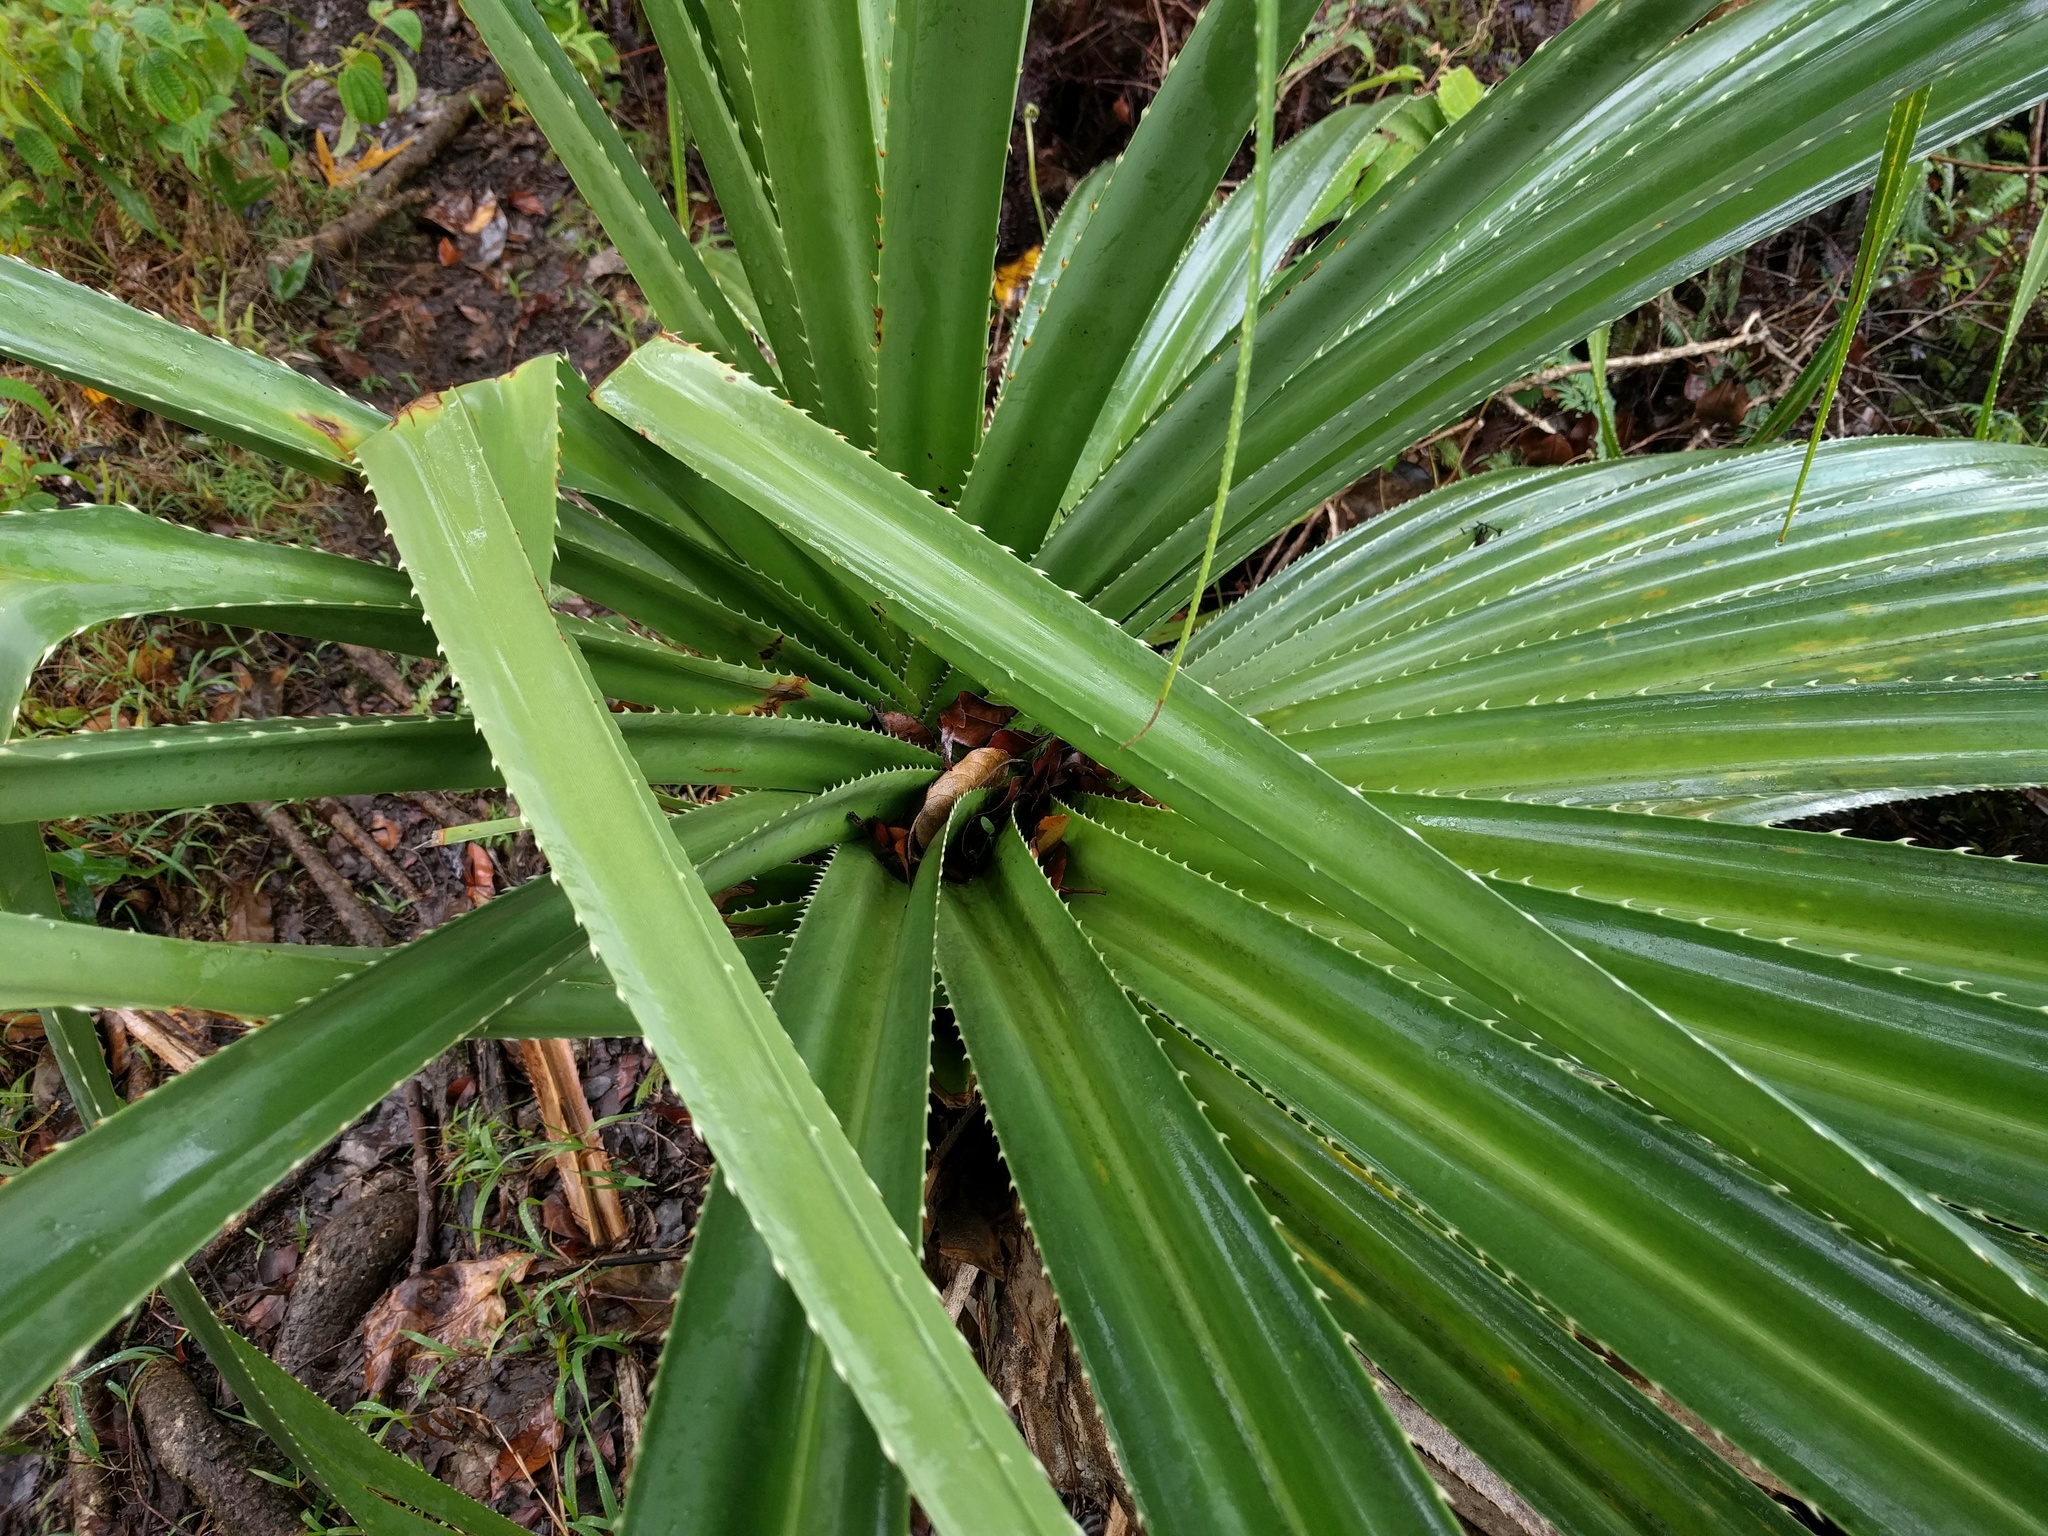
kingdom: Plantae
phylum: Tracheophyta
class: Liliopsida
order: Pandanales
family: Pandanaceae
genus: Pandanus
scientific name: Pandanus tectorius
